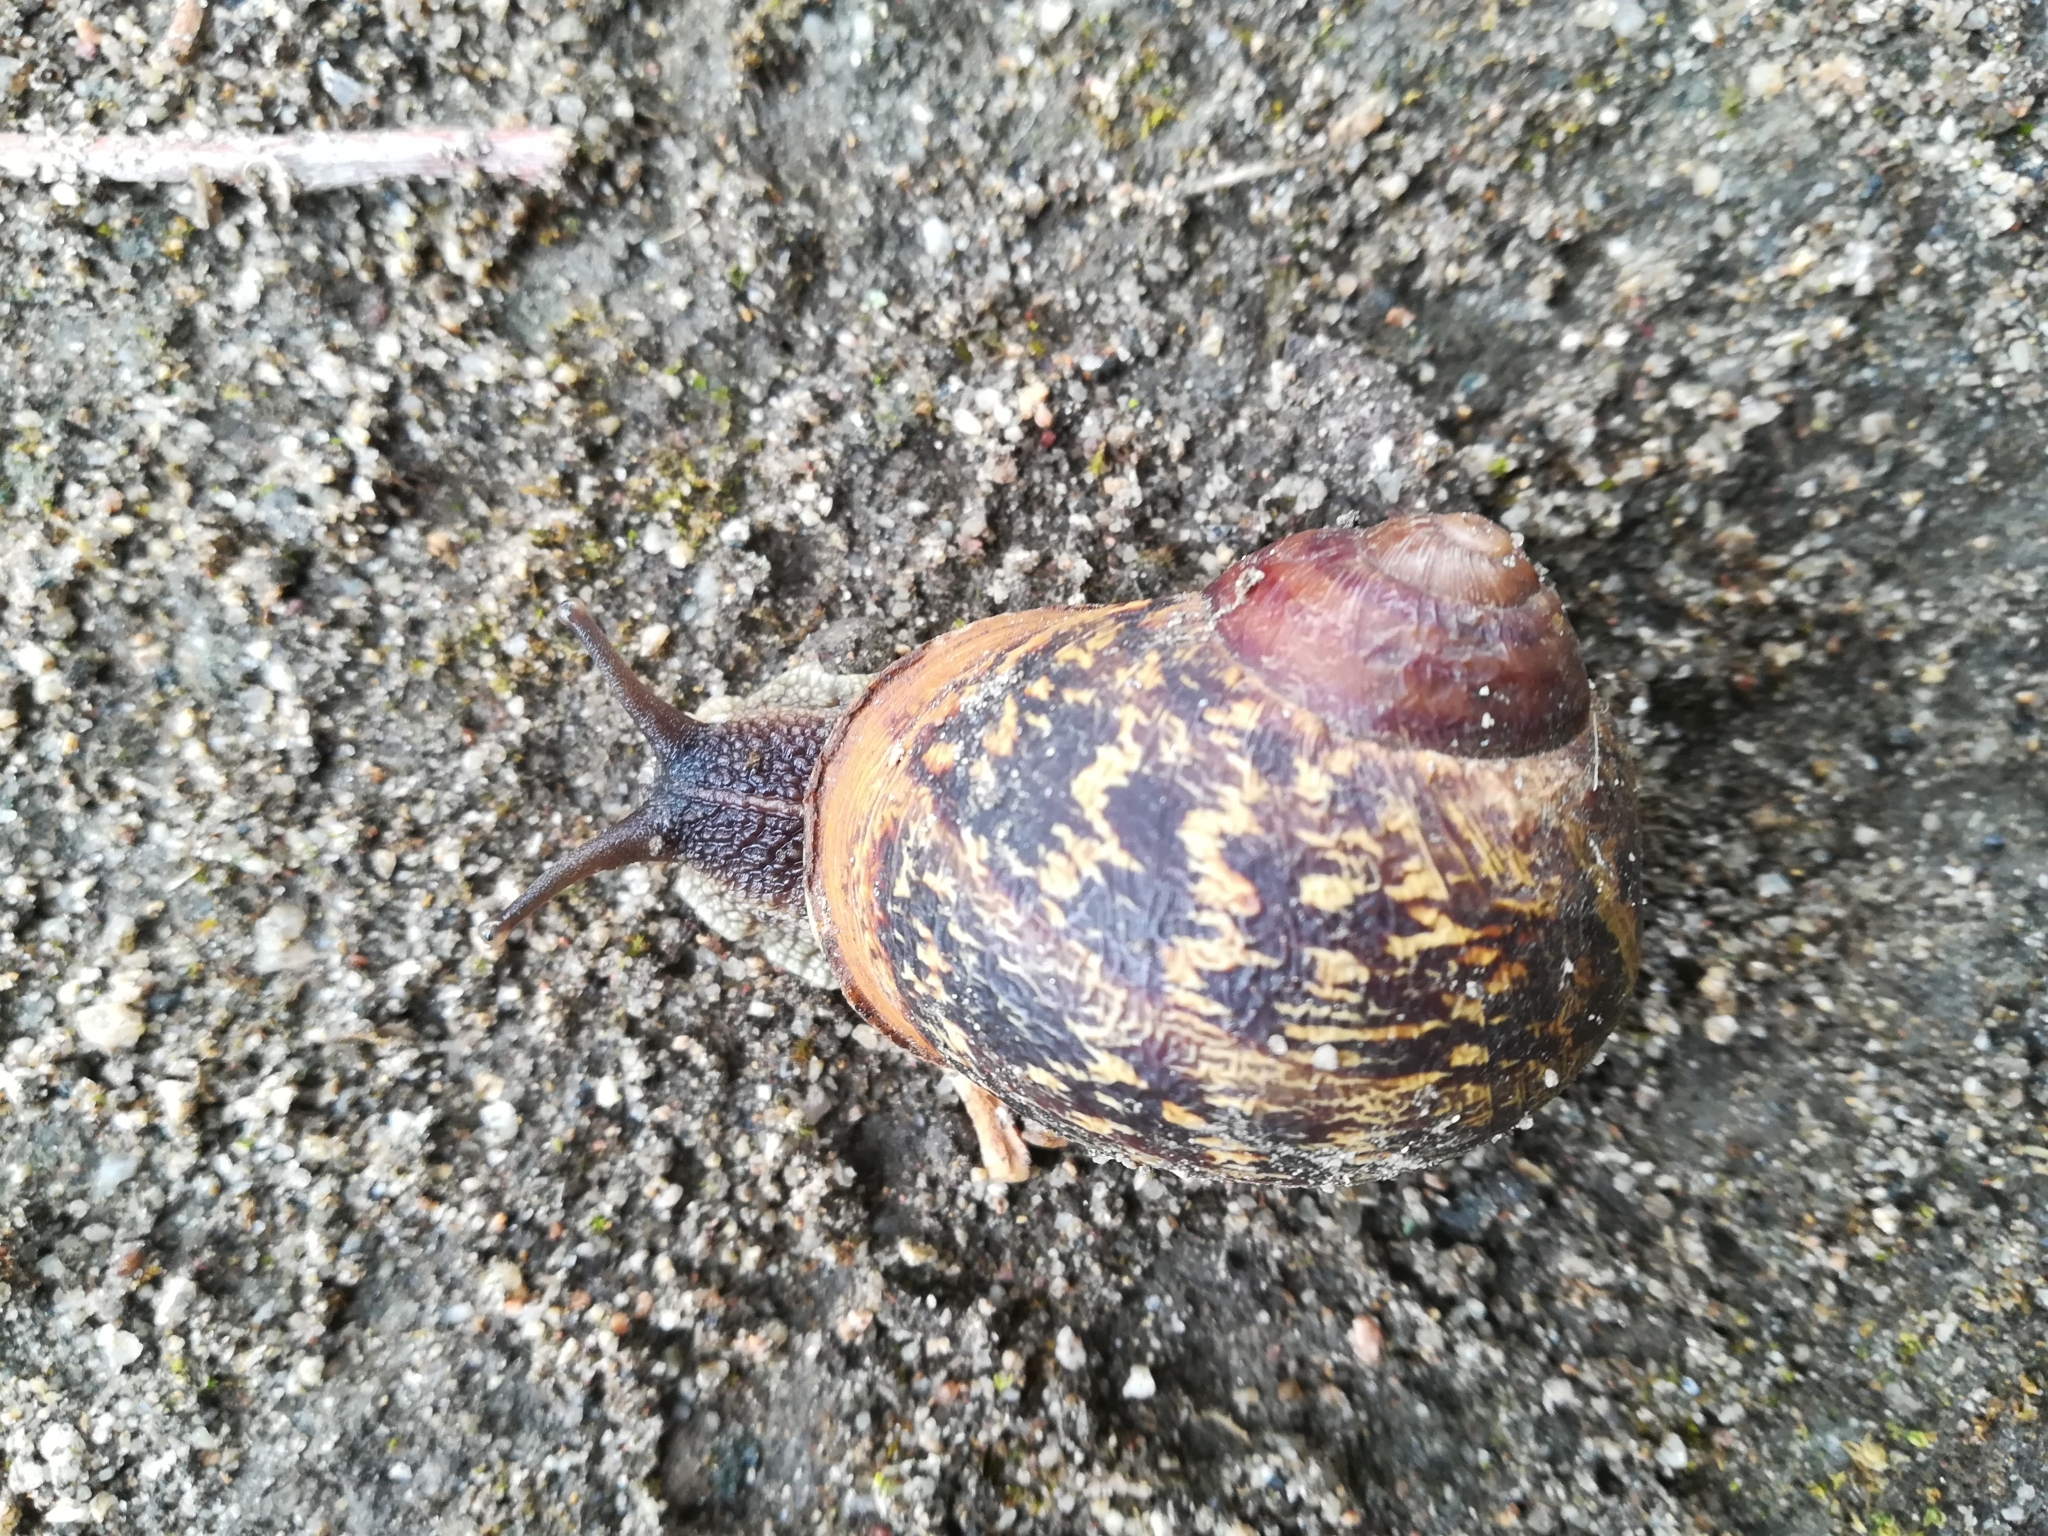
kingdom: Animalia
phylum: Mollusca
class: Gastropoda
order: Stylommatophora
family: Helicidae
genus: Cornu
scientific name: Cornu aspersum
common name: Brown garden snail
